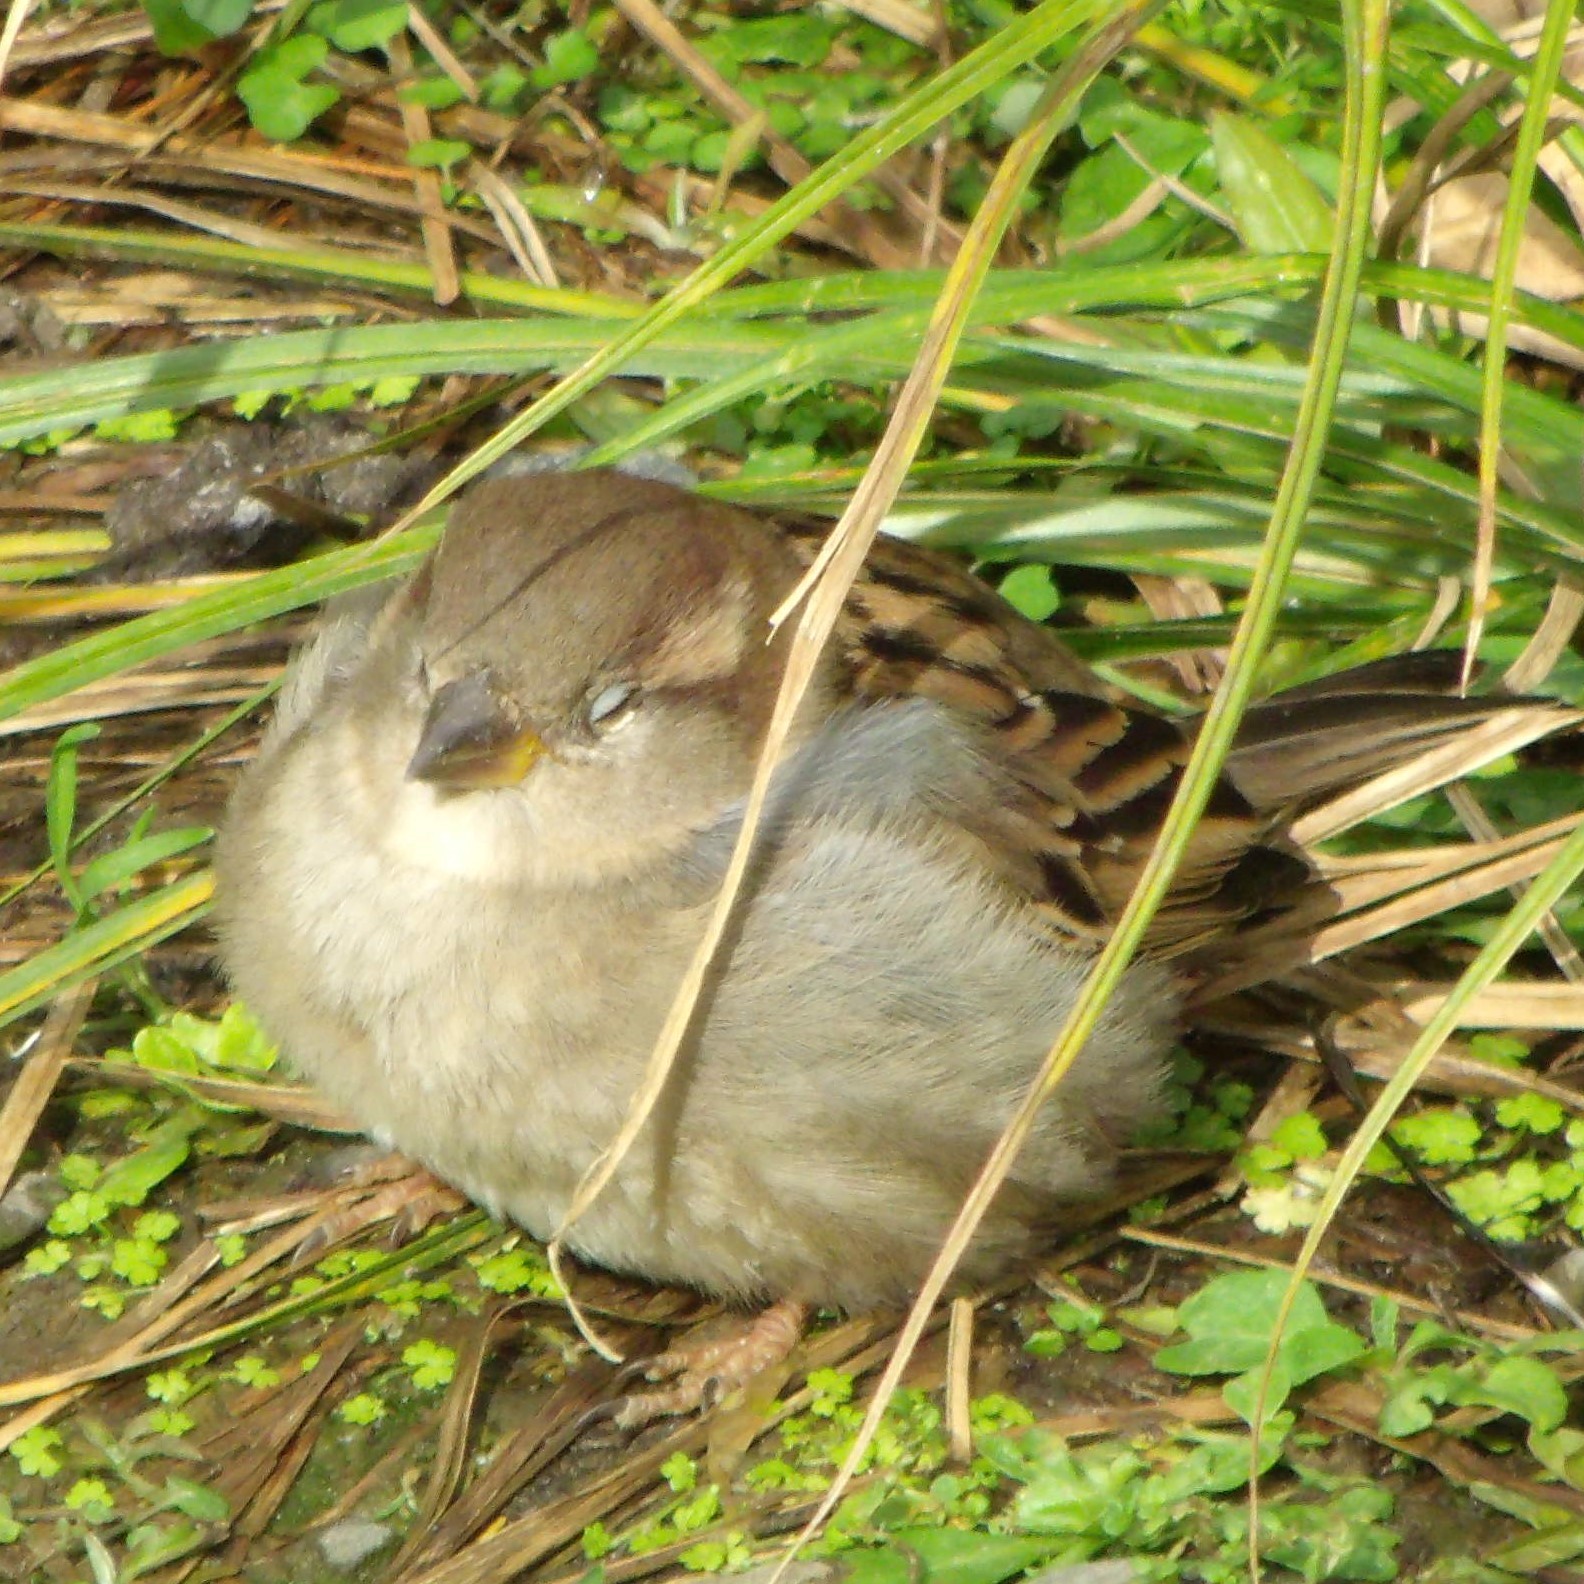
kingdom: Animalia
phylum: Chordata
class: Aves
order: Passeriformes
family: Passeridae
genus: Passer
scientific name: Passer domesticus
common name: House sparrow
